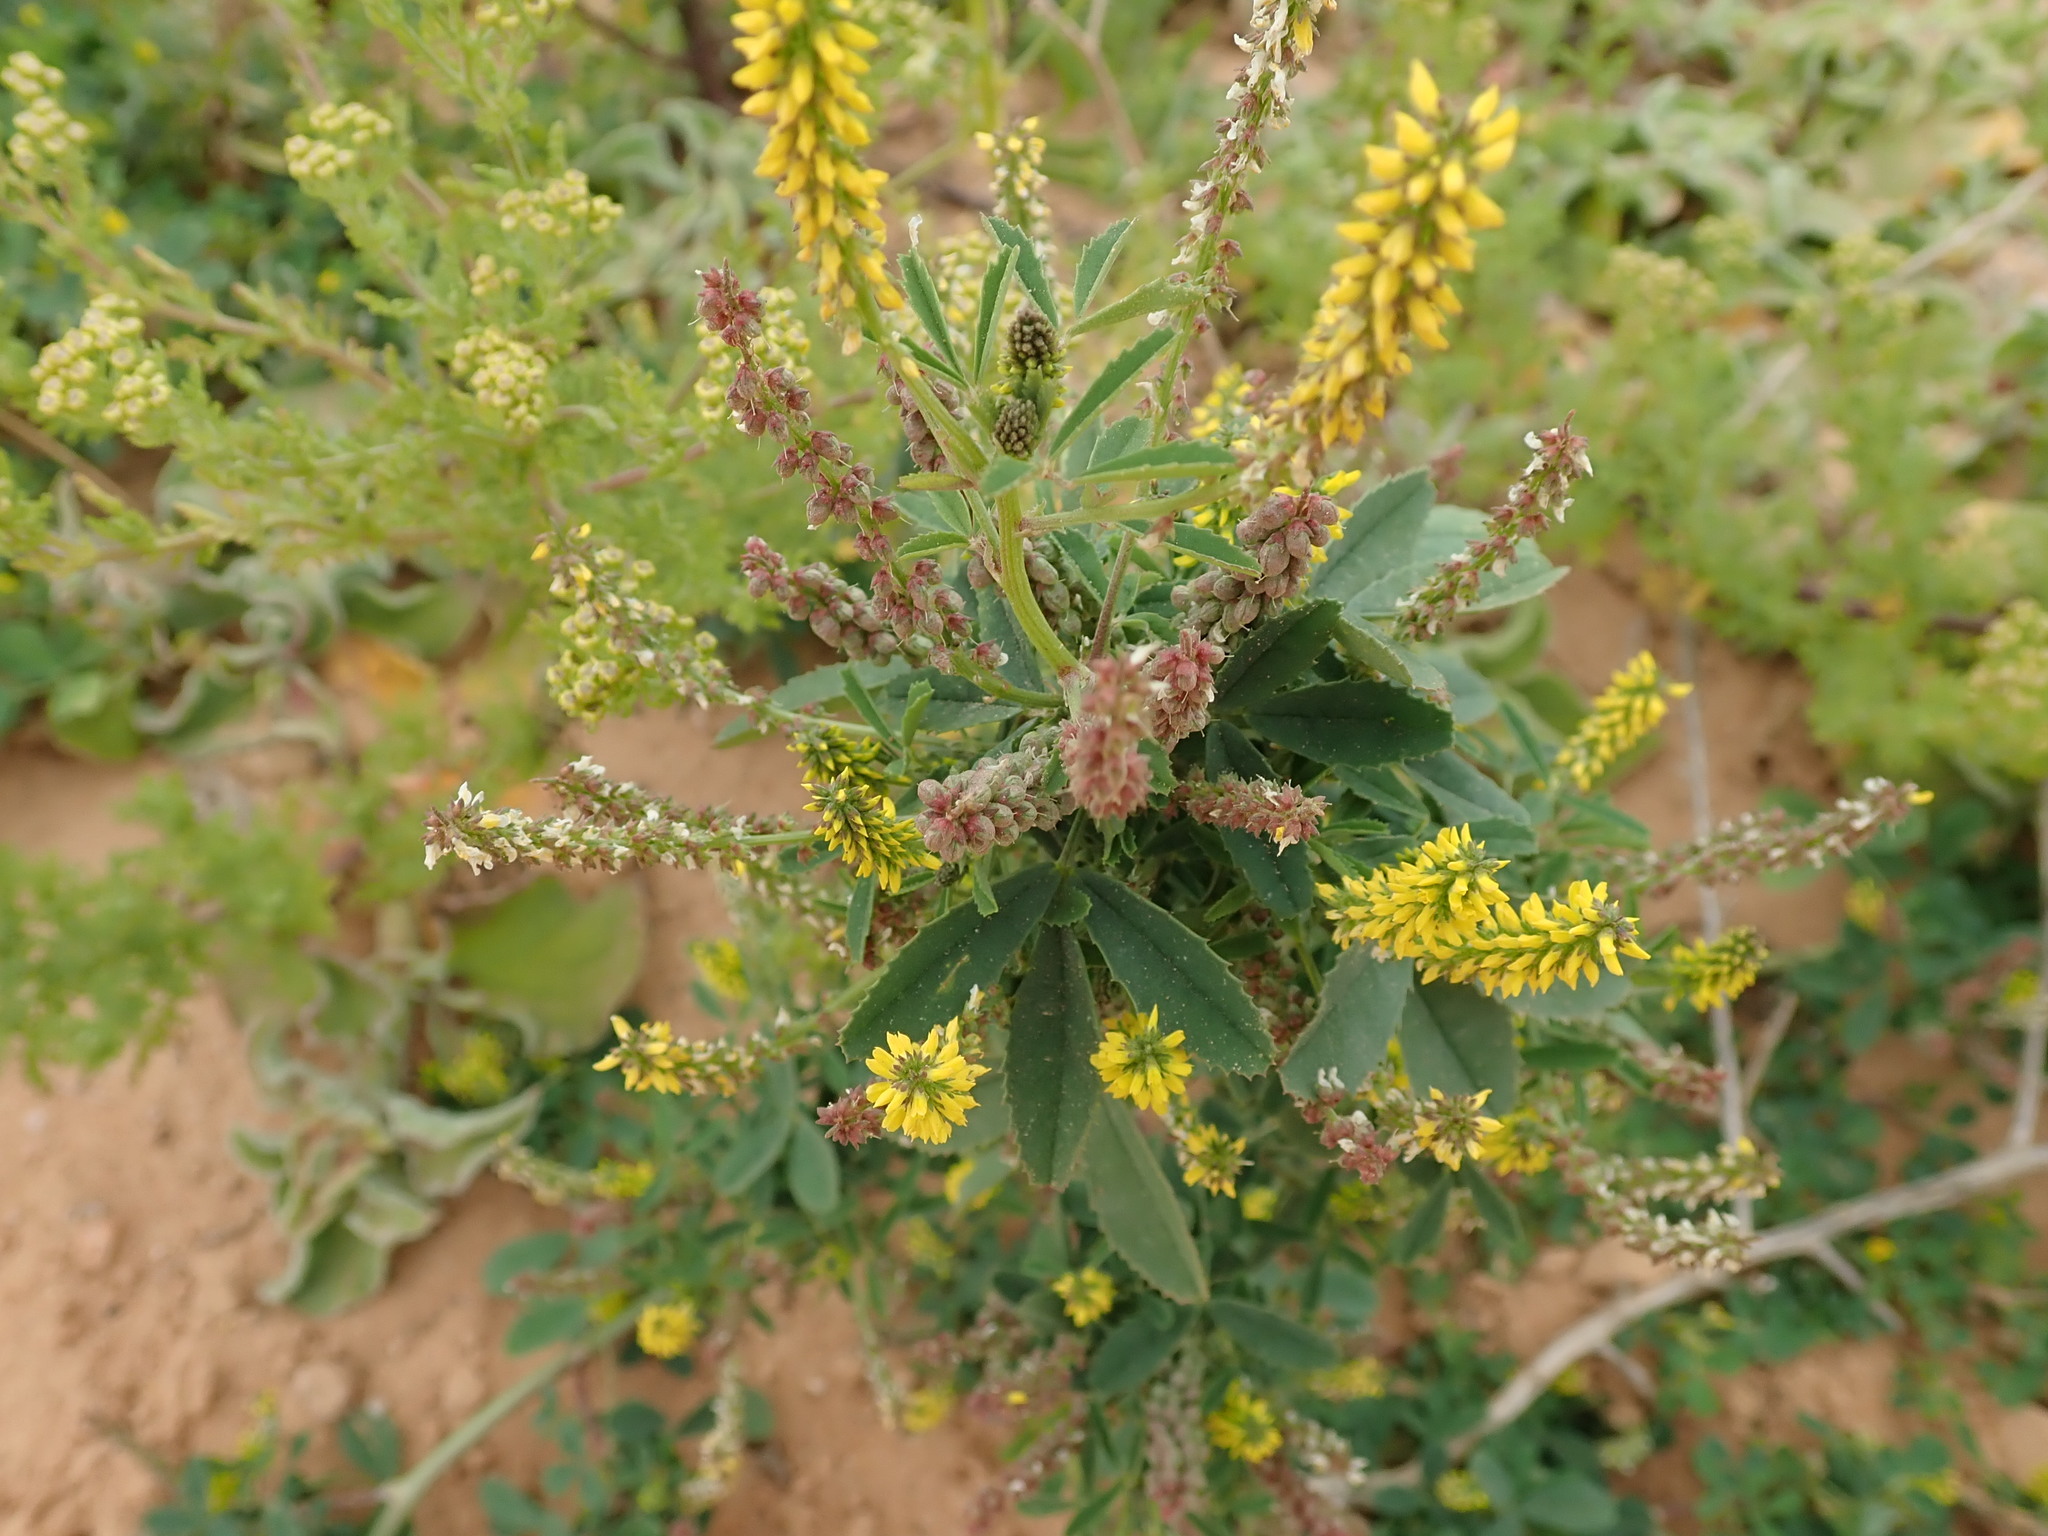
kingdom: Plantae
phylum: Tracheophyta
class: Magnoliopsida
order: Fabales
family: Fabaceae
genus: Melilotus
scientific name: Melilotus indicus
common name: Small melilot
